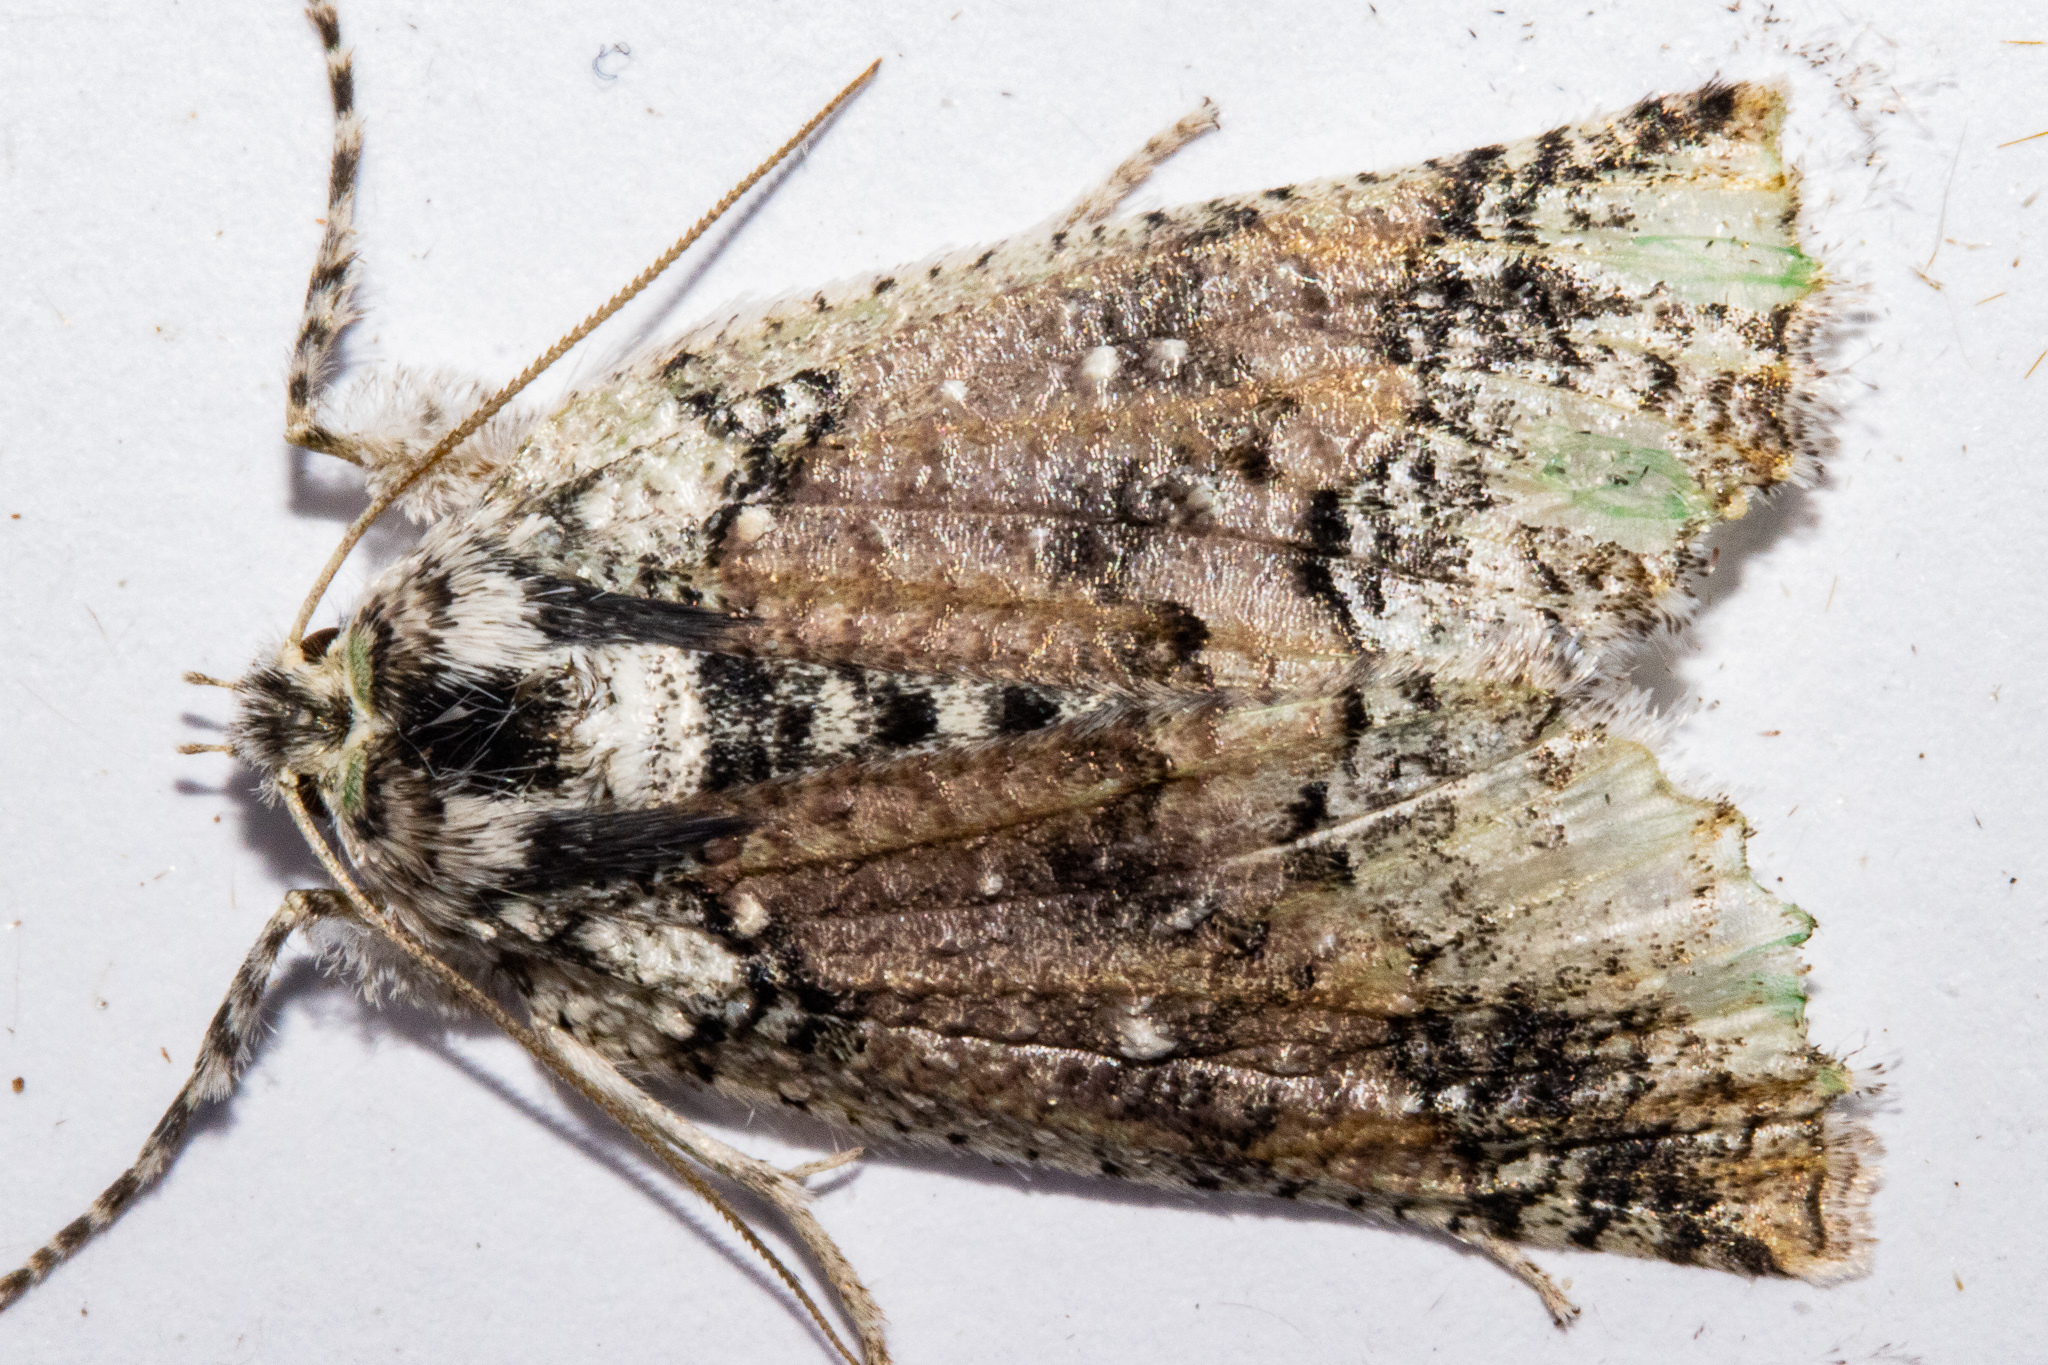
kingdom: Animalia
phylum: Arthropoda
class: Insecta
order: Lepidoptera
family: Geometridae
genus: Declana
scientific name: Declana floccosa
